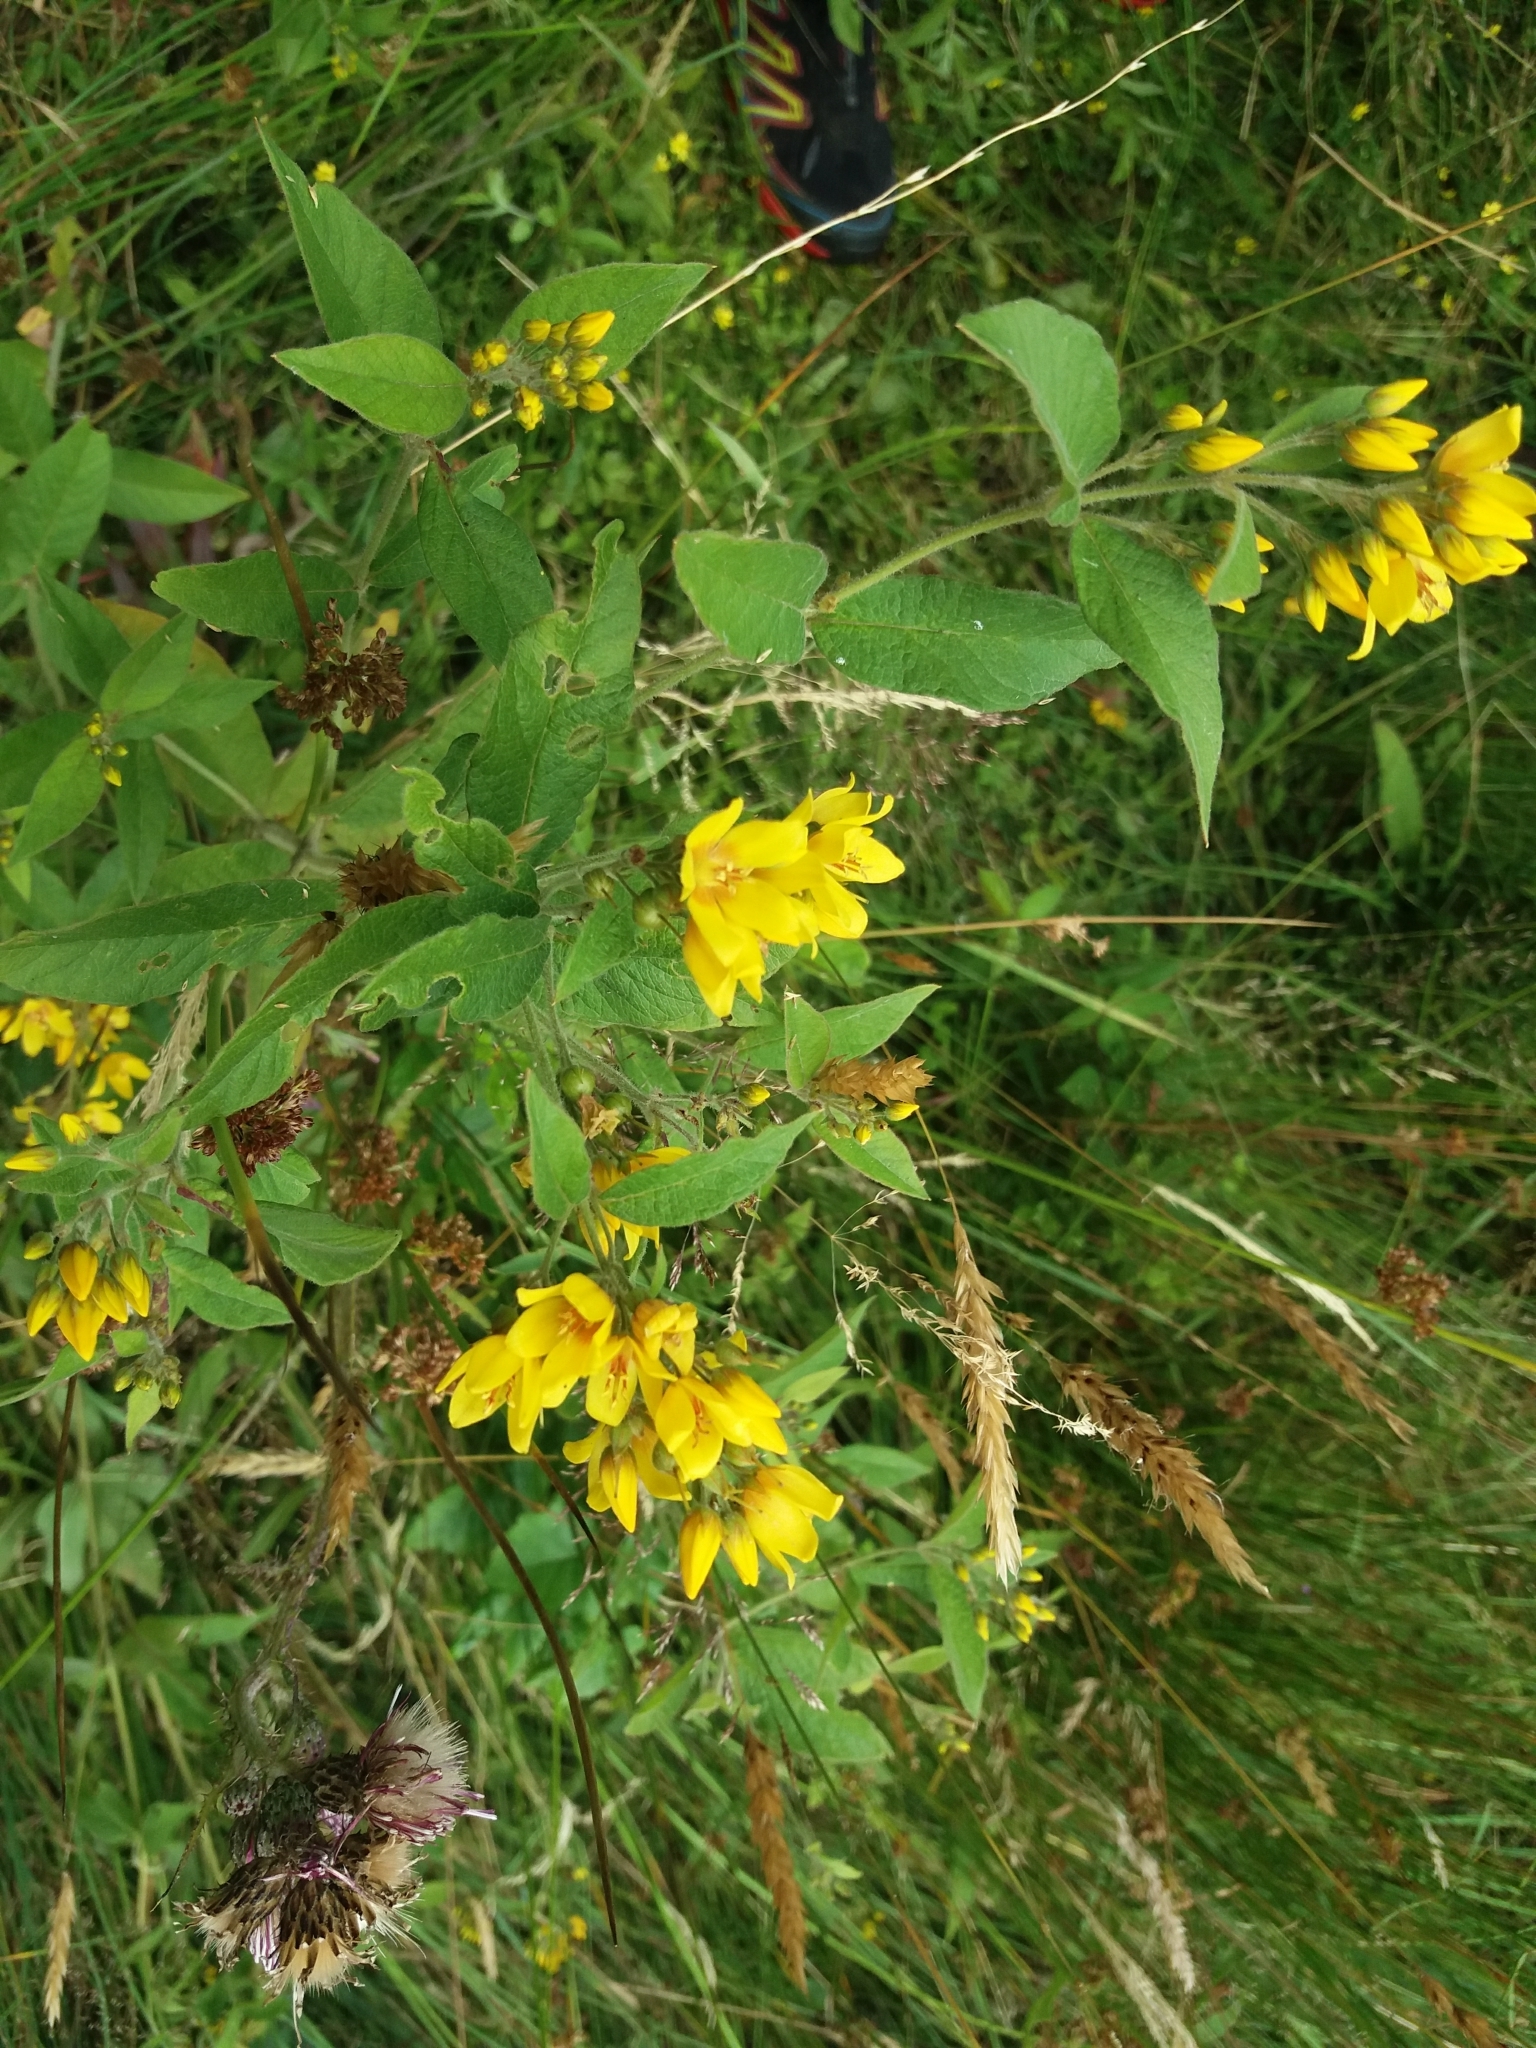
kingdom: Plantae
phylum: Tracheophyta
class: Magnoliopsida
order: Ericales
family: Primulaceae
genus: Lysimachia
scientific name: Lysimachia vulgaris
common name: Yellow loosestrife
